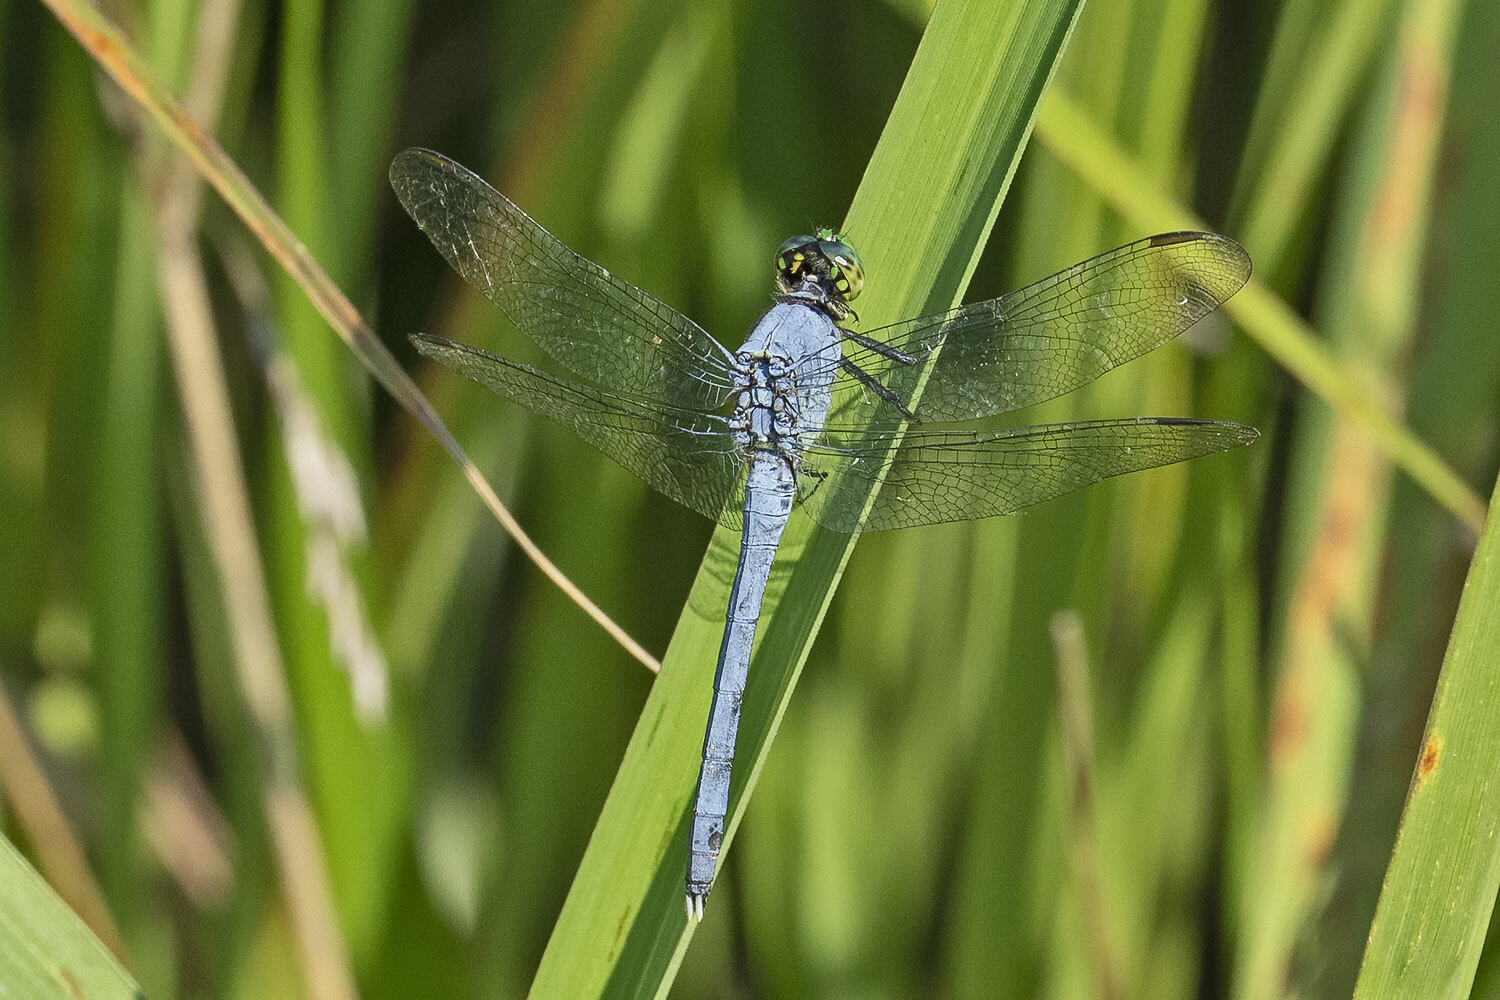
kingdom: Animalia
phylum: Arthropoda
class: Insecta
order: Odonata
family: Libellulidae
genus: Erythemis
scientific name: Erythemis simplicicollis
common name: Eastern pondhawk
